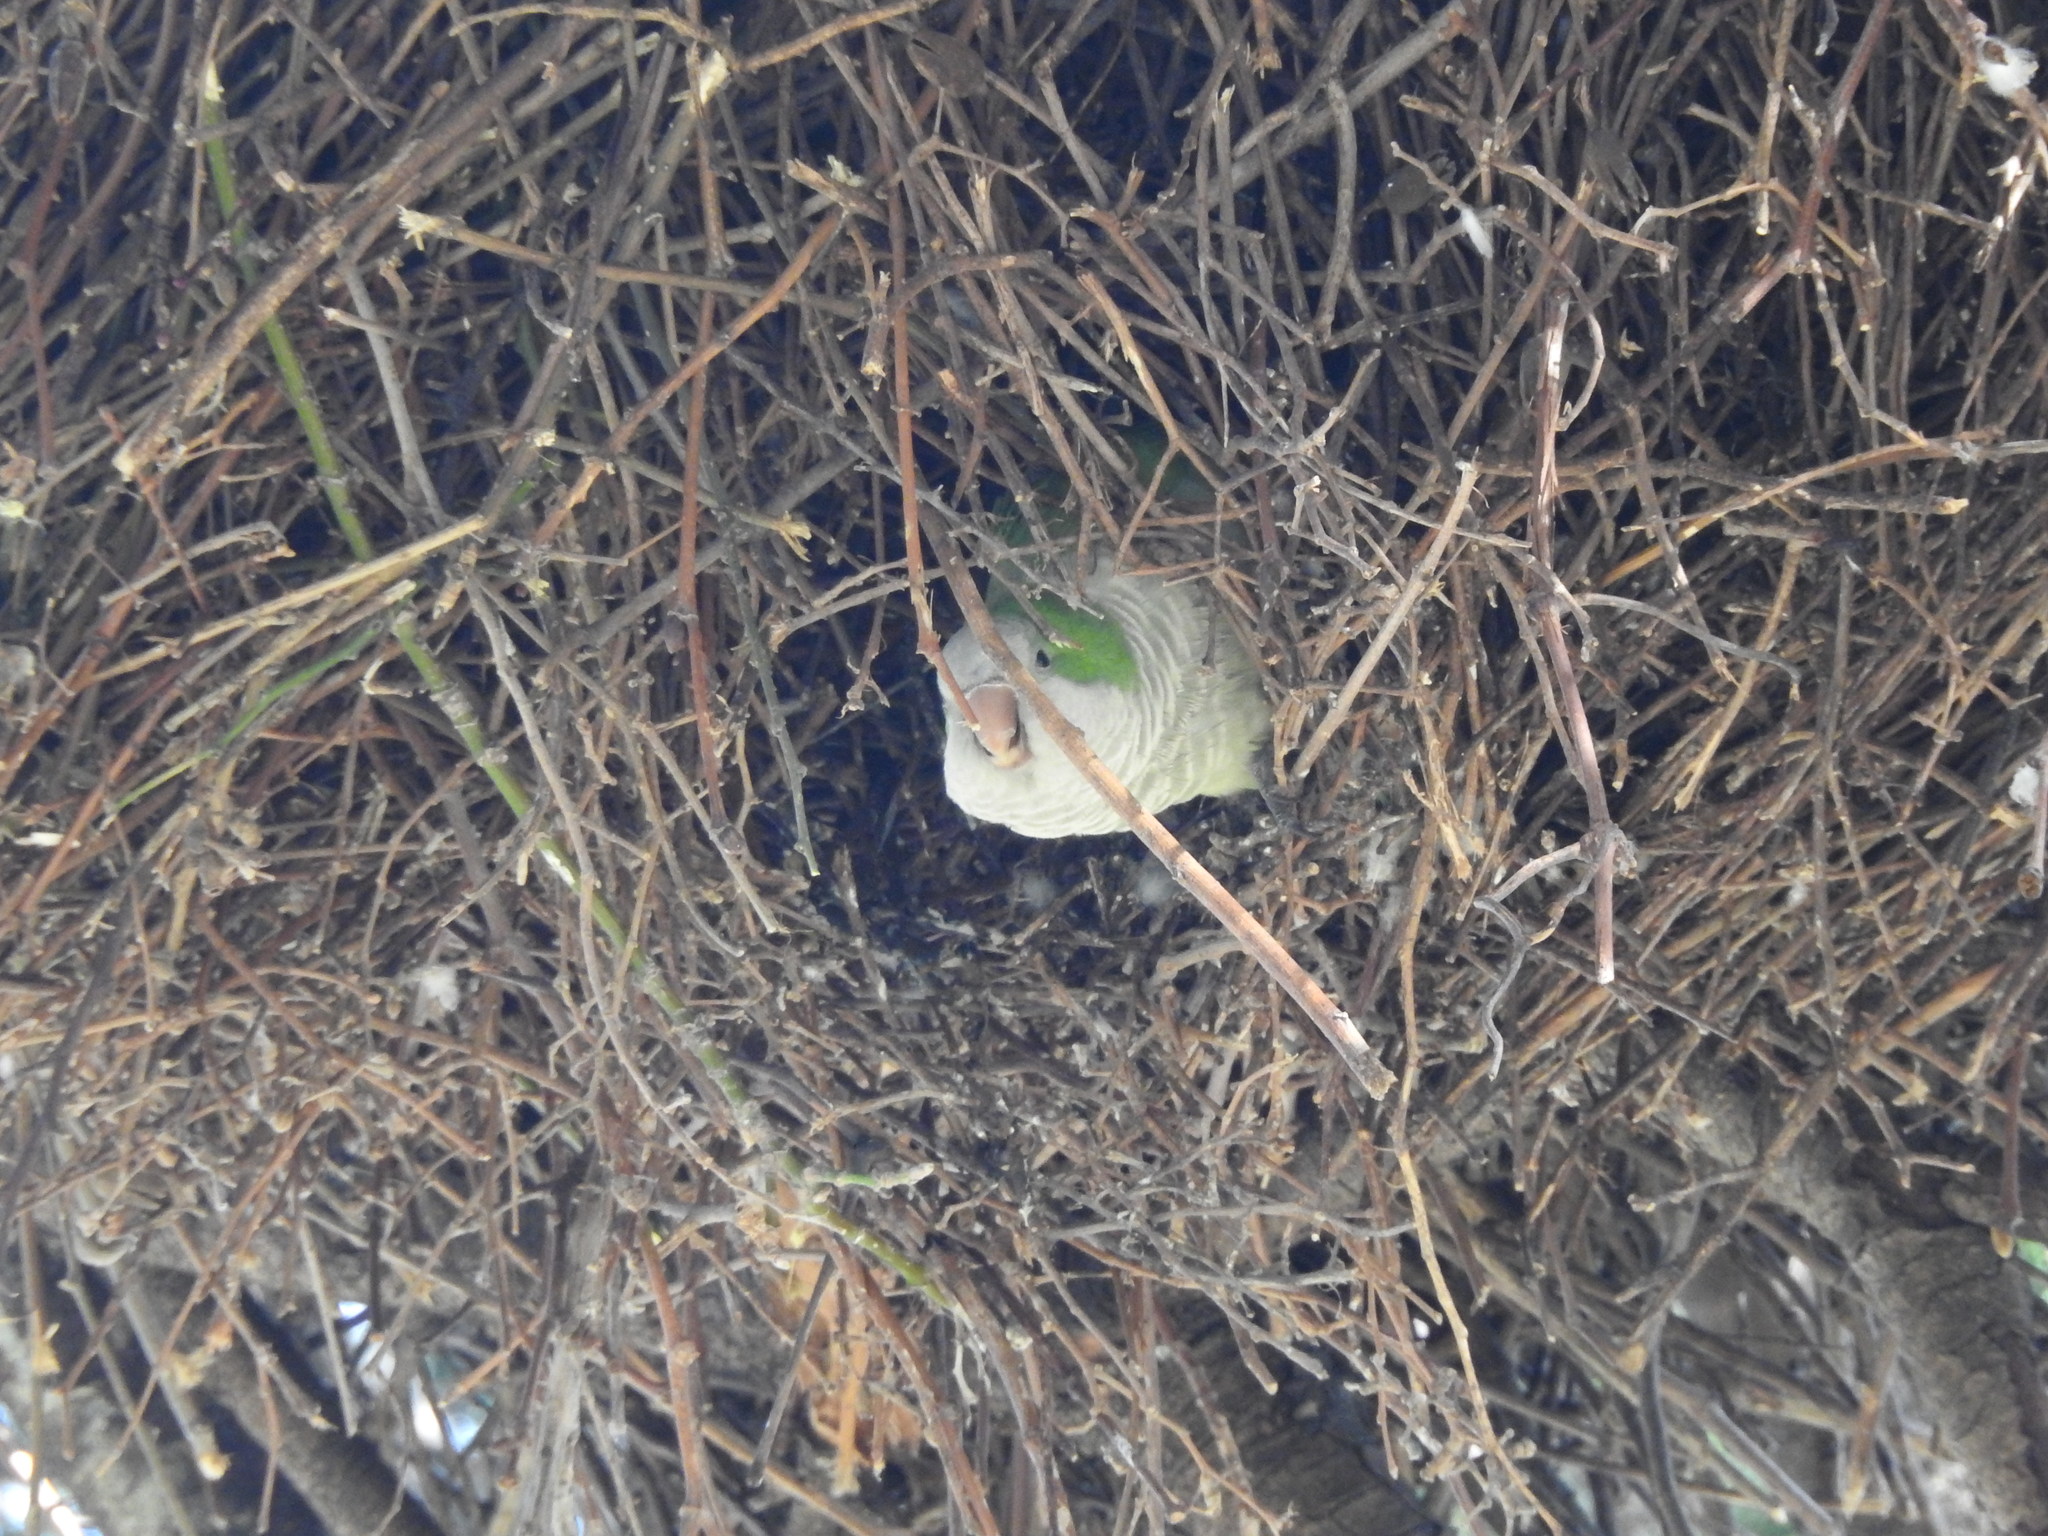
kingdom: Animalia
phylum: Chordata
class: Aves
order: Psittaciformes
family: Psittacidae
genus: Myiopsitta
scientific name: Myiopsitta monachus
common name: Monk parakeet
